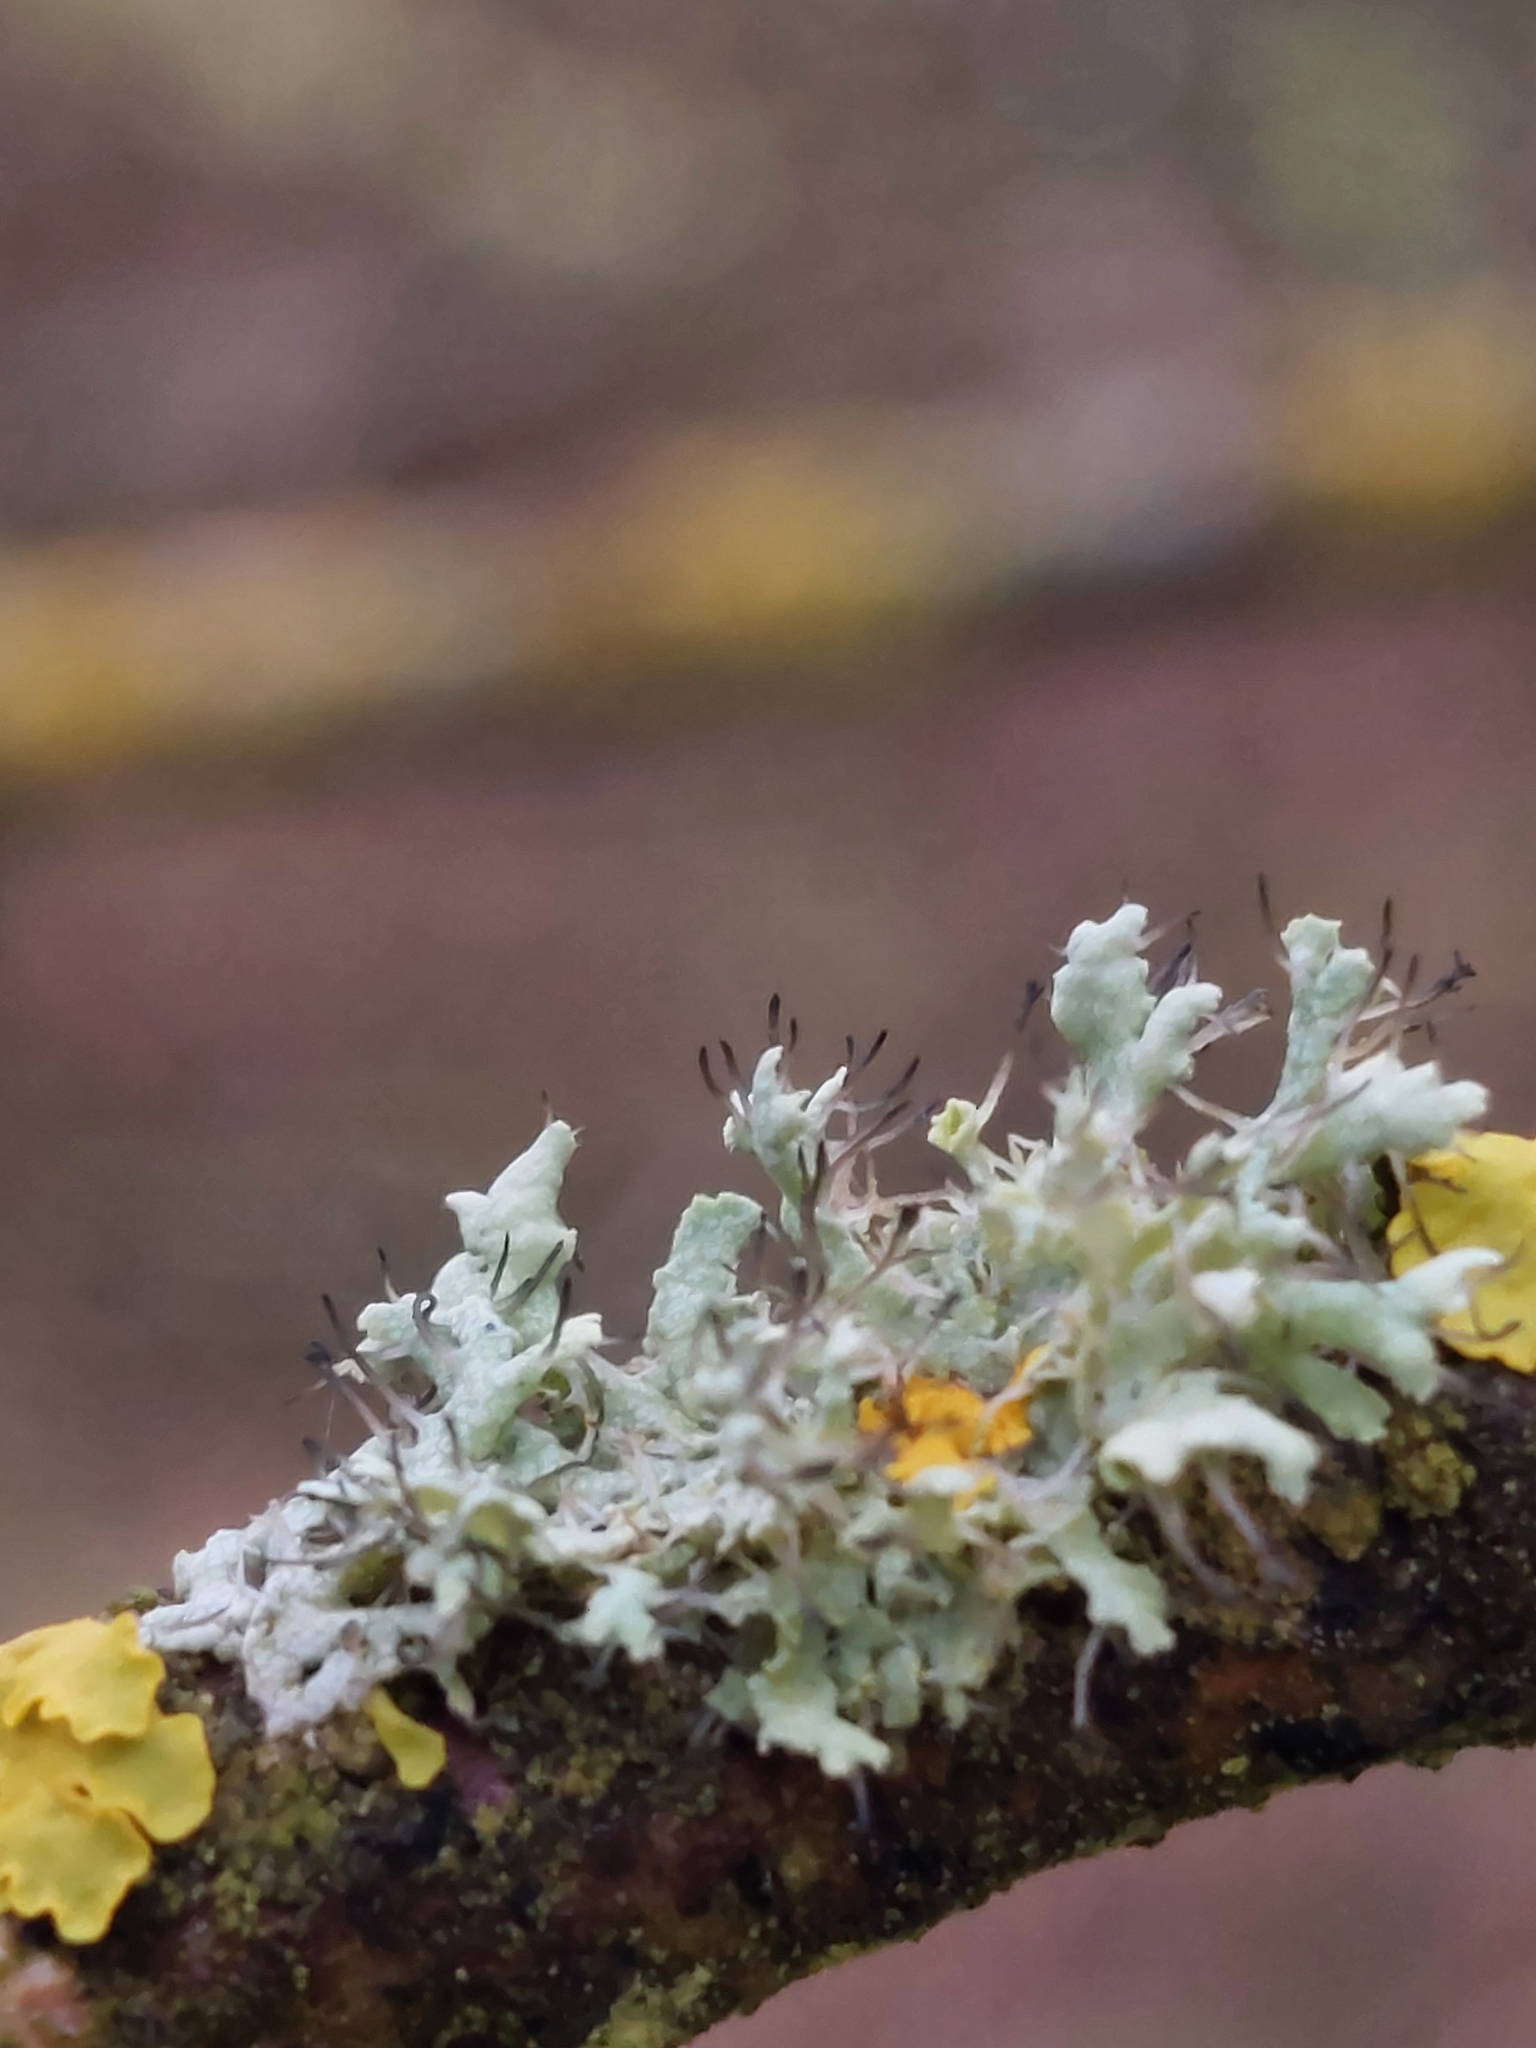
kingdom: Fungi
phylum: Ascomycota
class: Lecanoromycetes
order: Caliciales
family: Physciaceae
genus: Physcia
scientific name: Physcia adscendens
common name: Hooded rosette lichen
